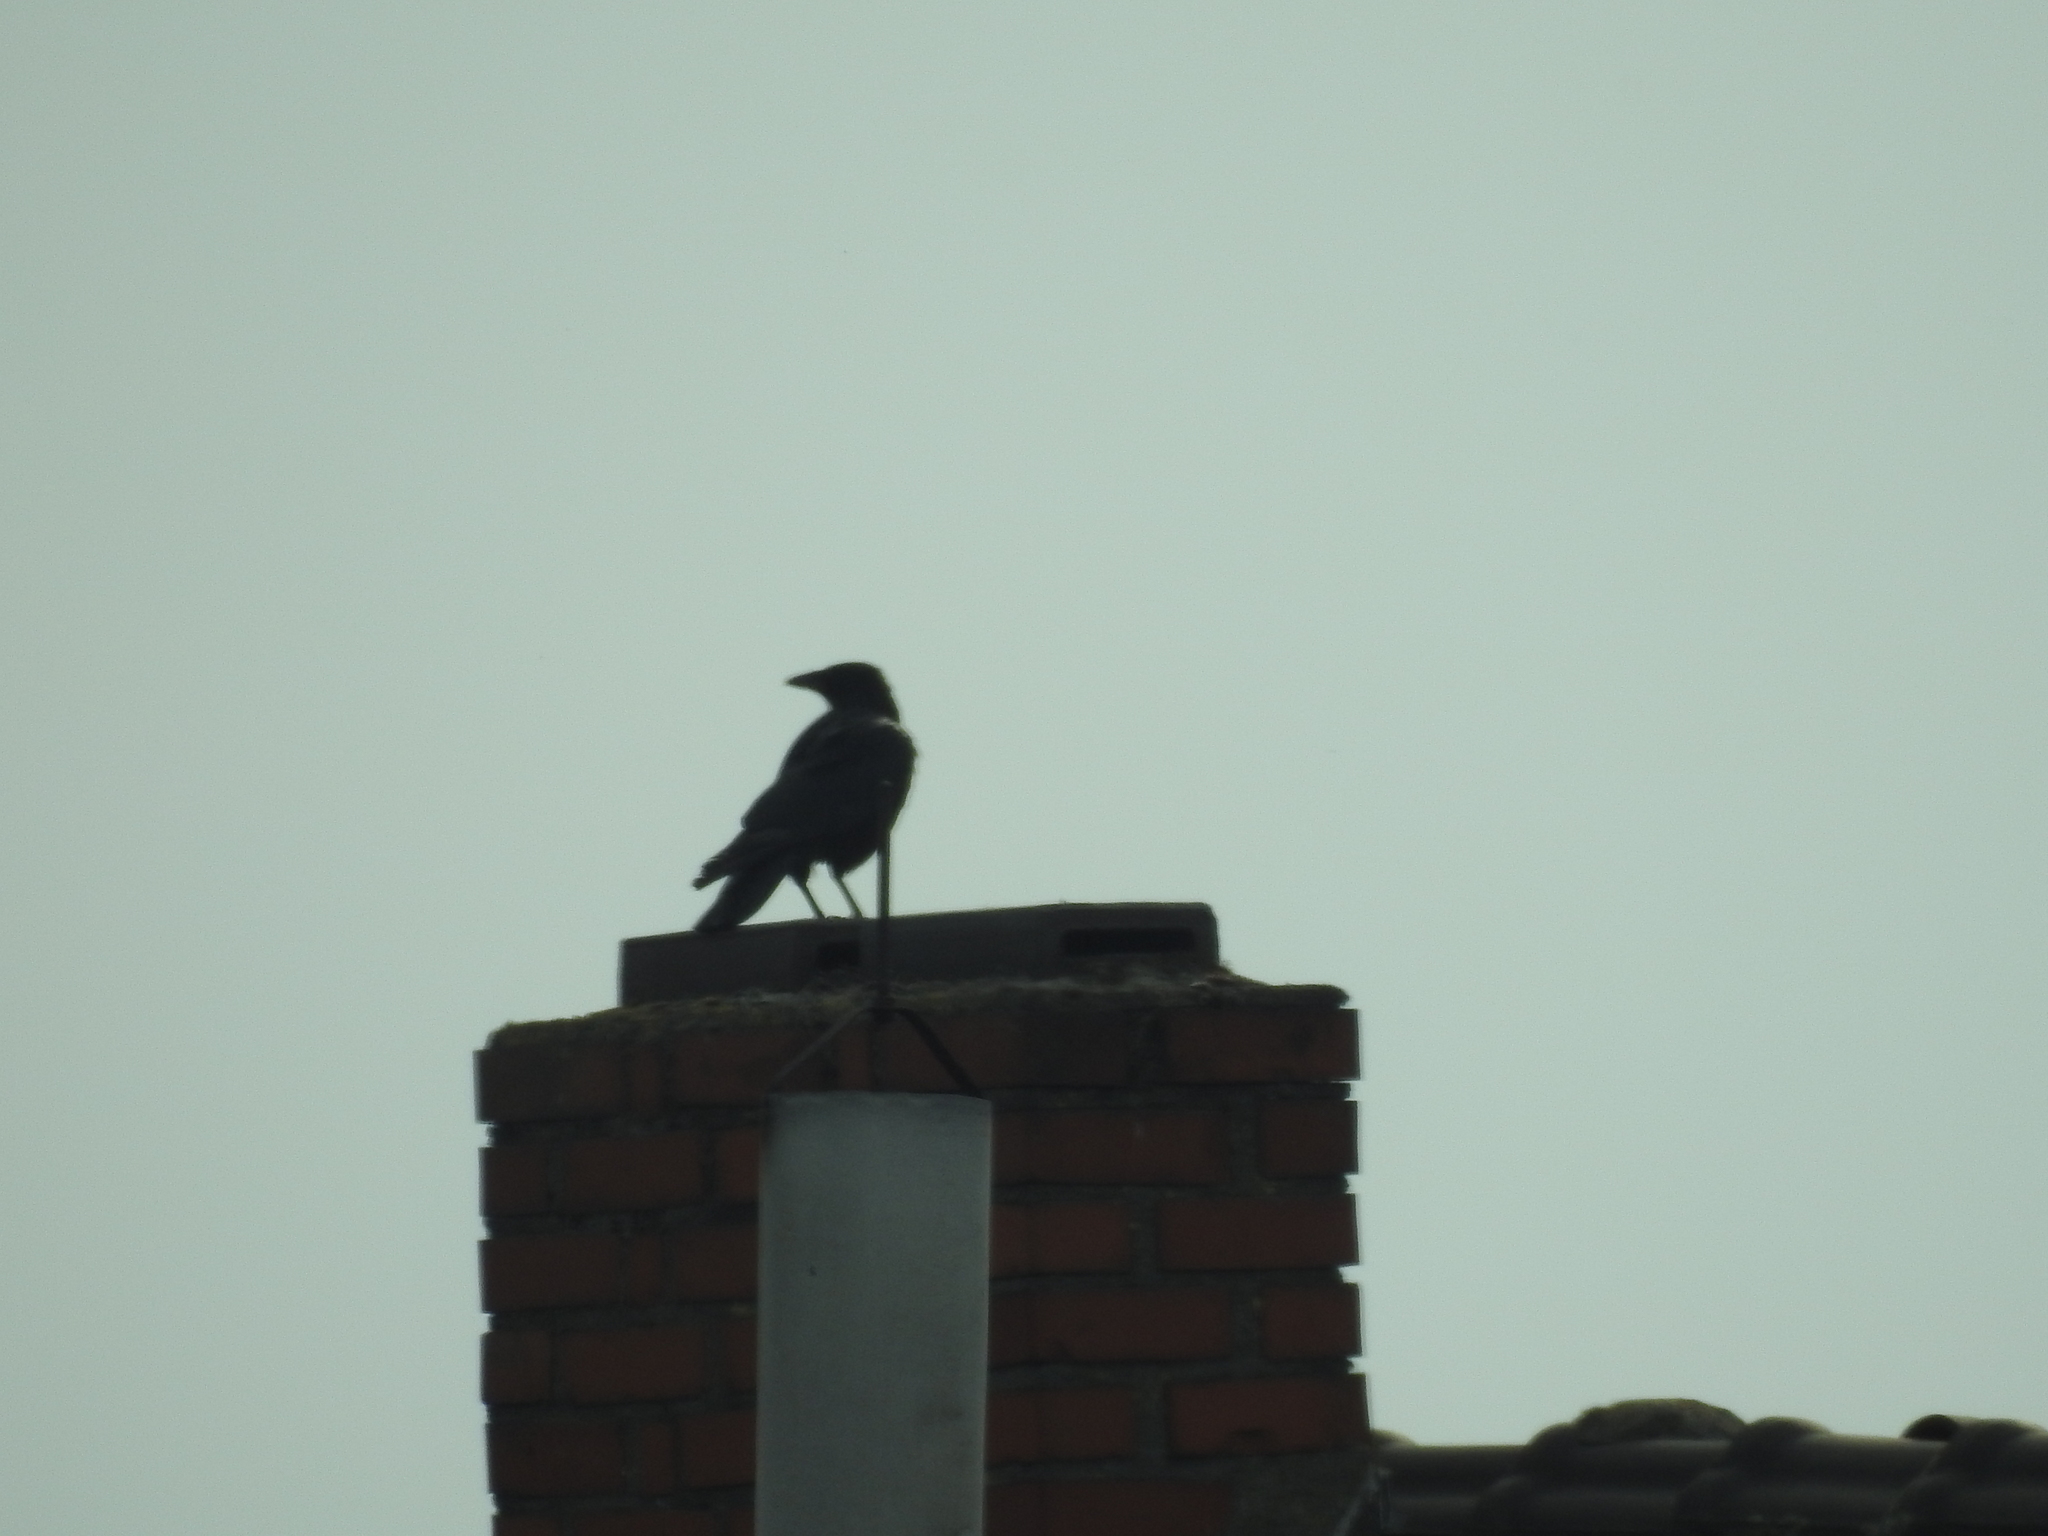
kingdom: Animalia
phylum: Chordata
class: Aves
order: Passeriformes
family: Corvidae
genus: Corvus
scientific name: Corvus corone
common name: Carrion crow
